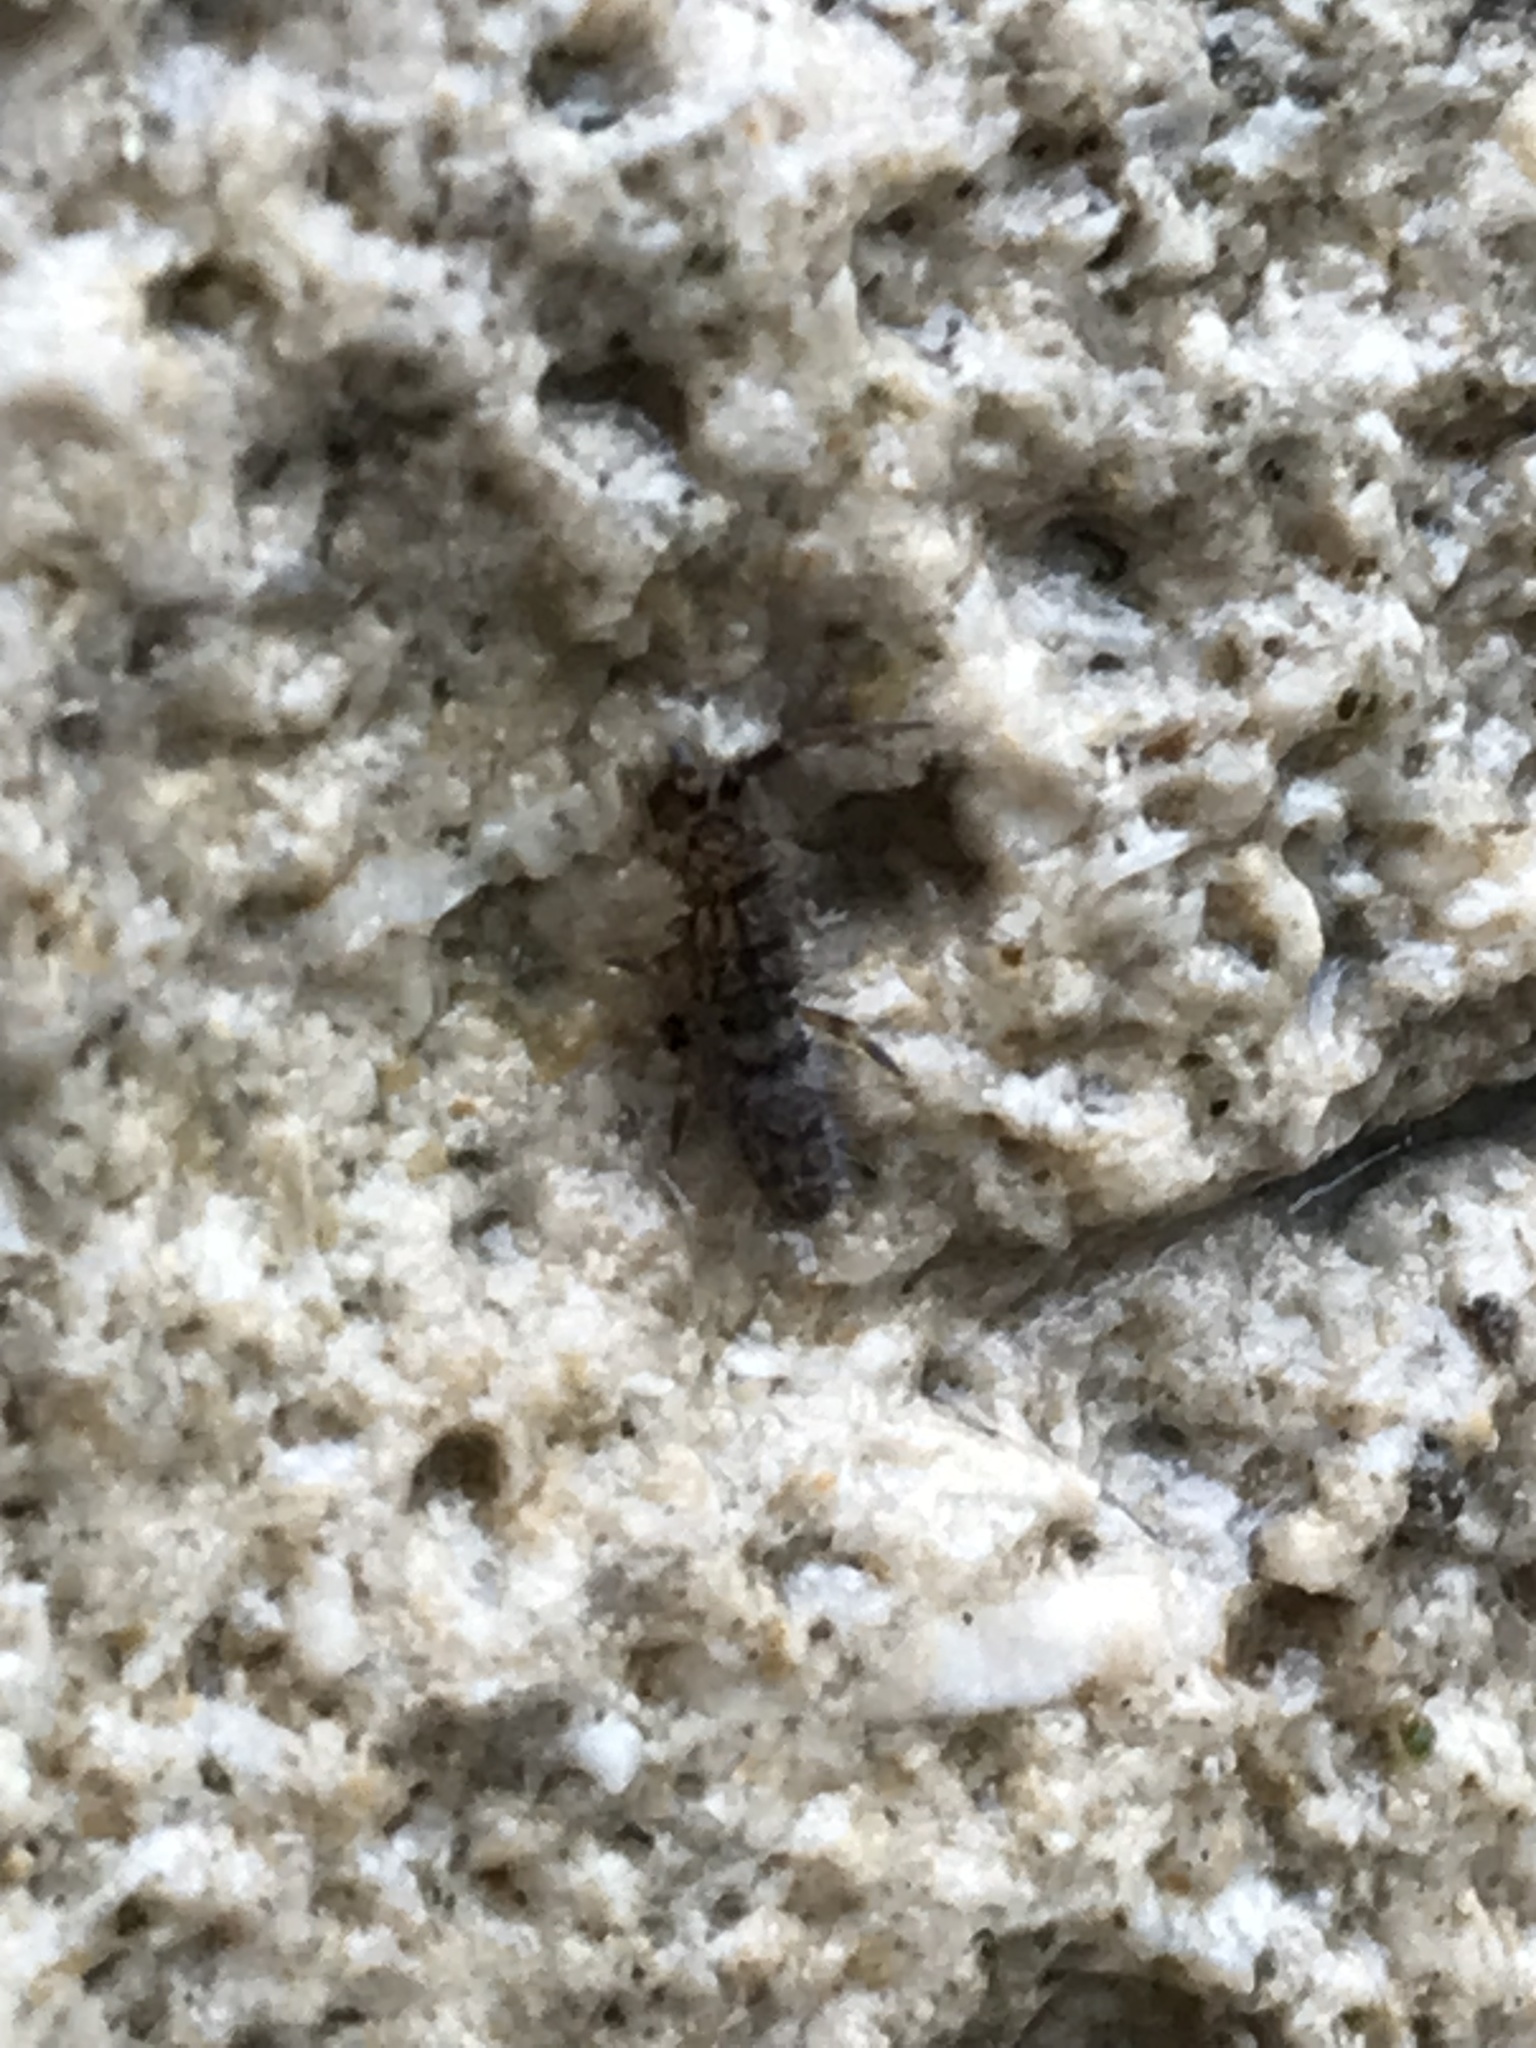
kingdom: Animalia
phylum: Arthropoda
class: Collembola
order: Entomobryomorpha
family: Orchesellidae
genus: Orchesella
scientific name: Orchesella villosa
